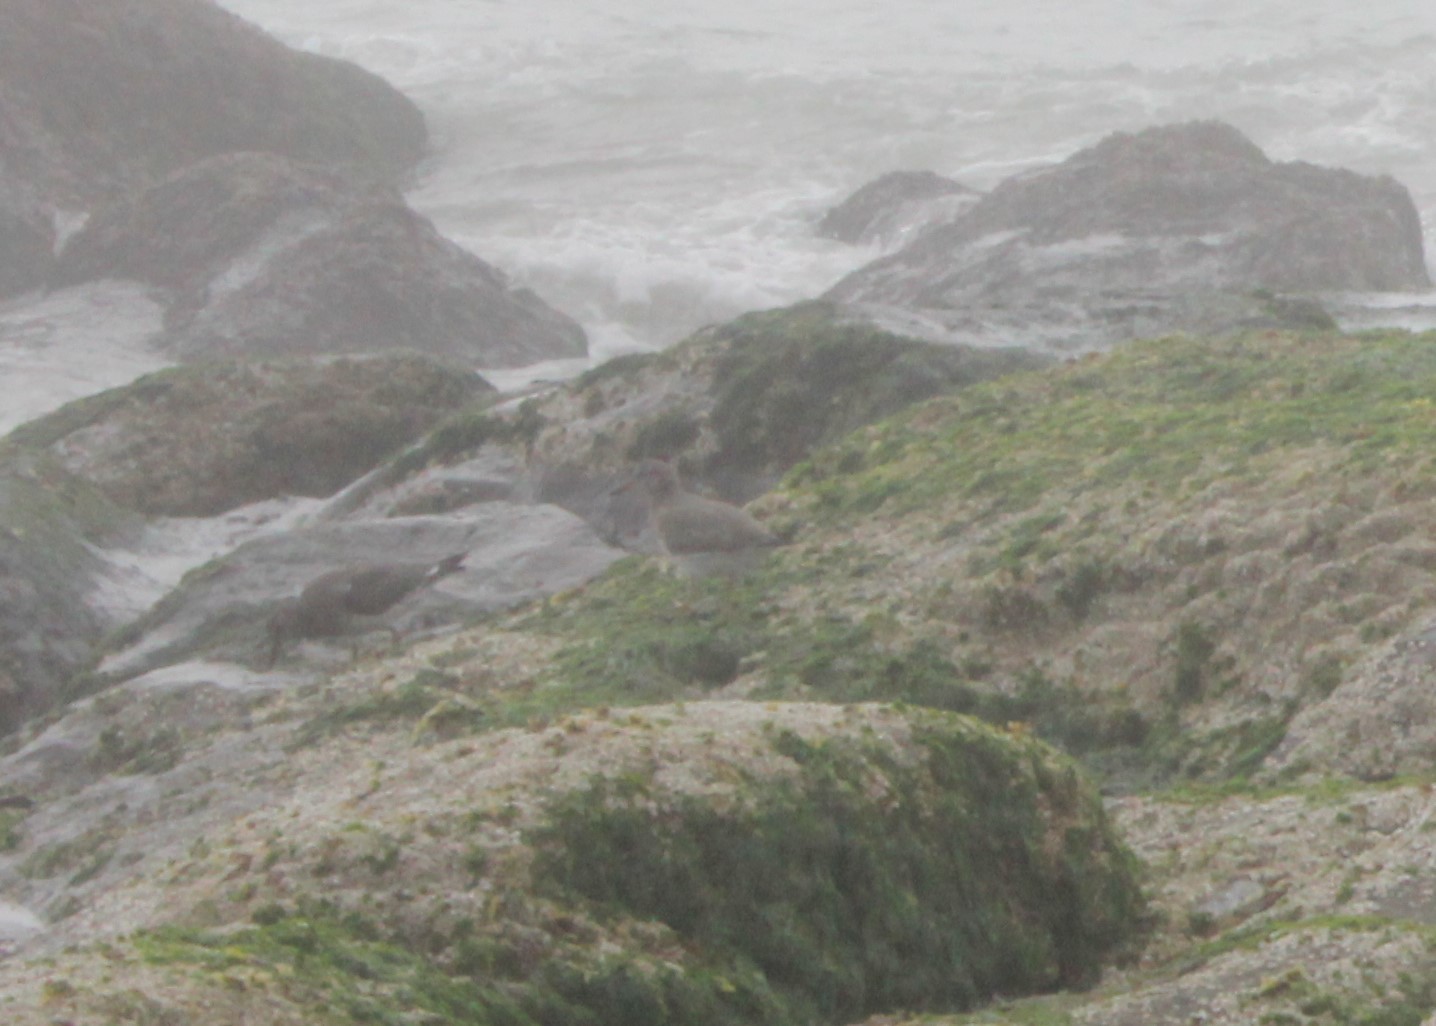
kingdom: Animalia
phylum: Chordata
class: Aves
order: Charadriiformes
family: Scolopacidae
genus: Calidris
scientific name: Calidris virgata
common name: Surfbird
